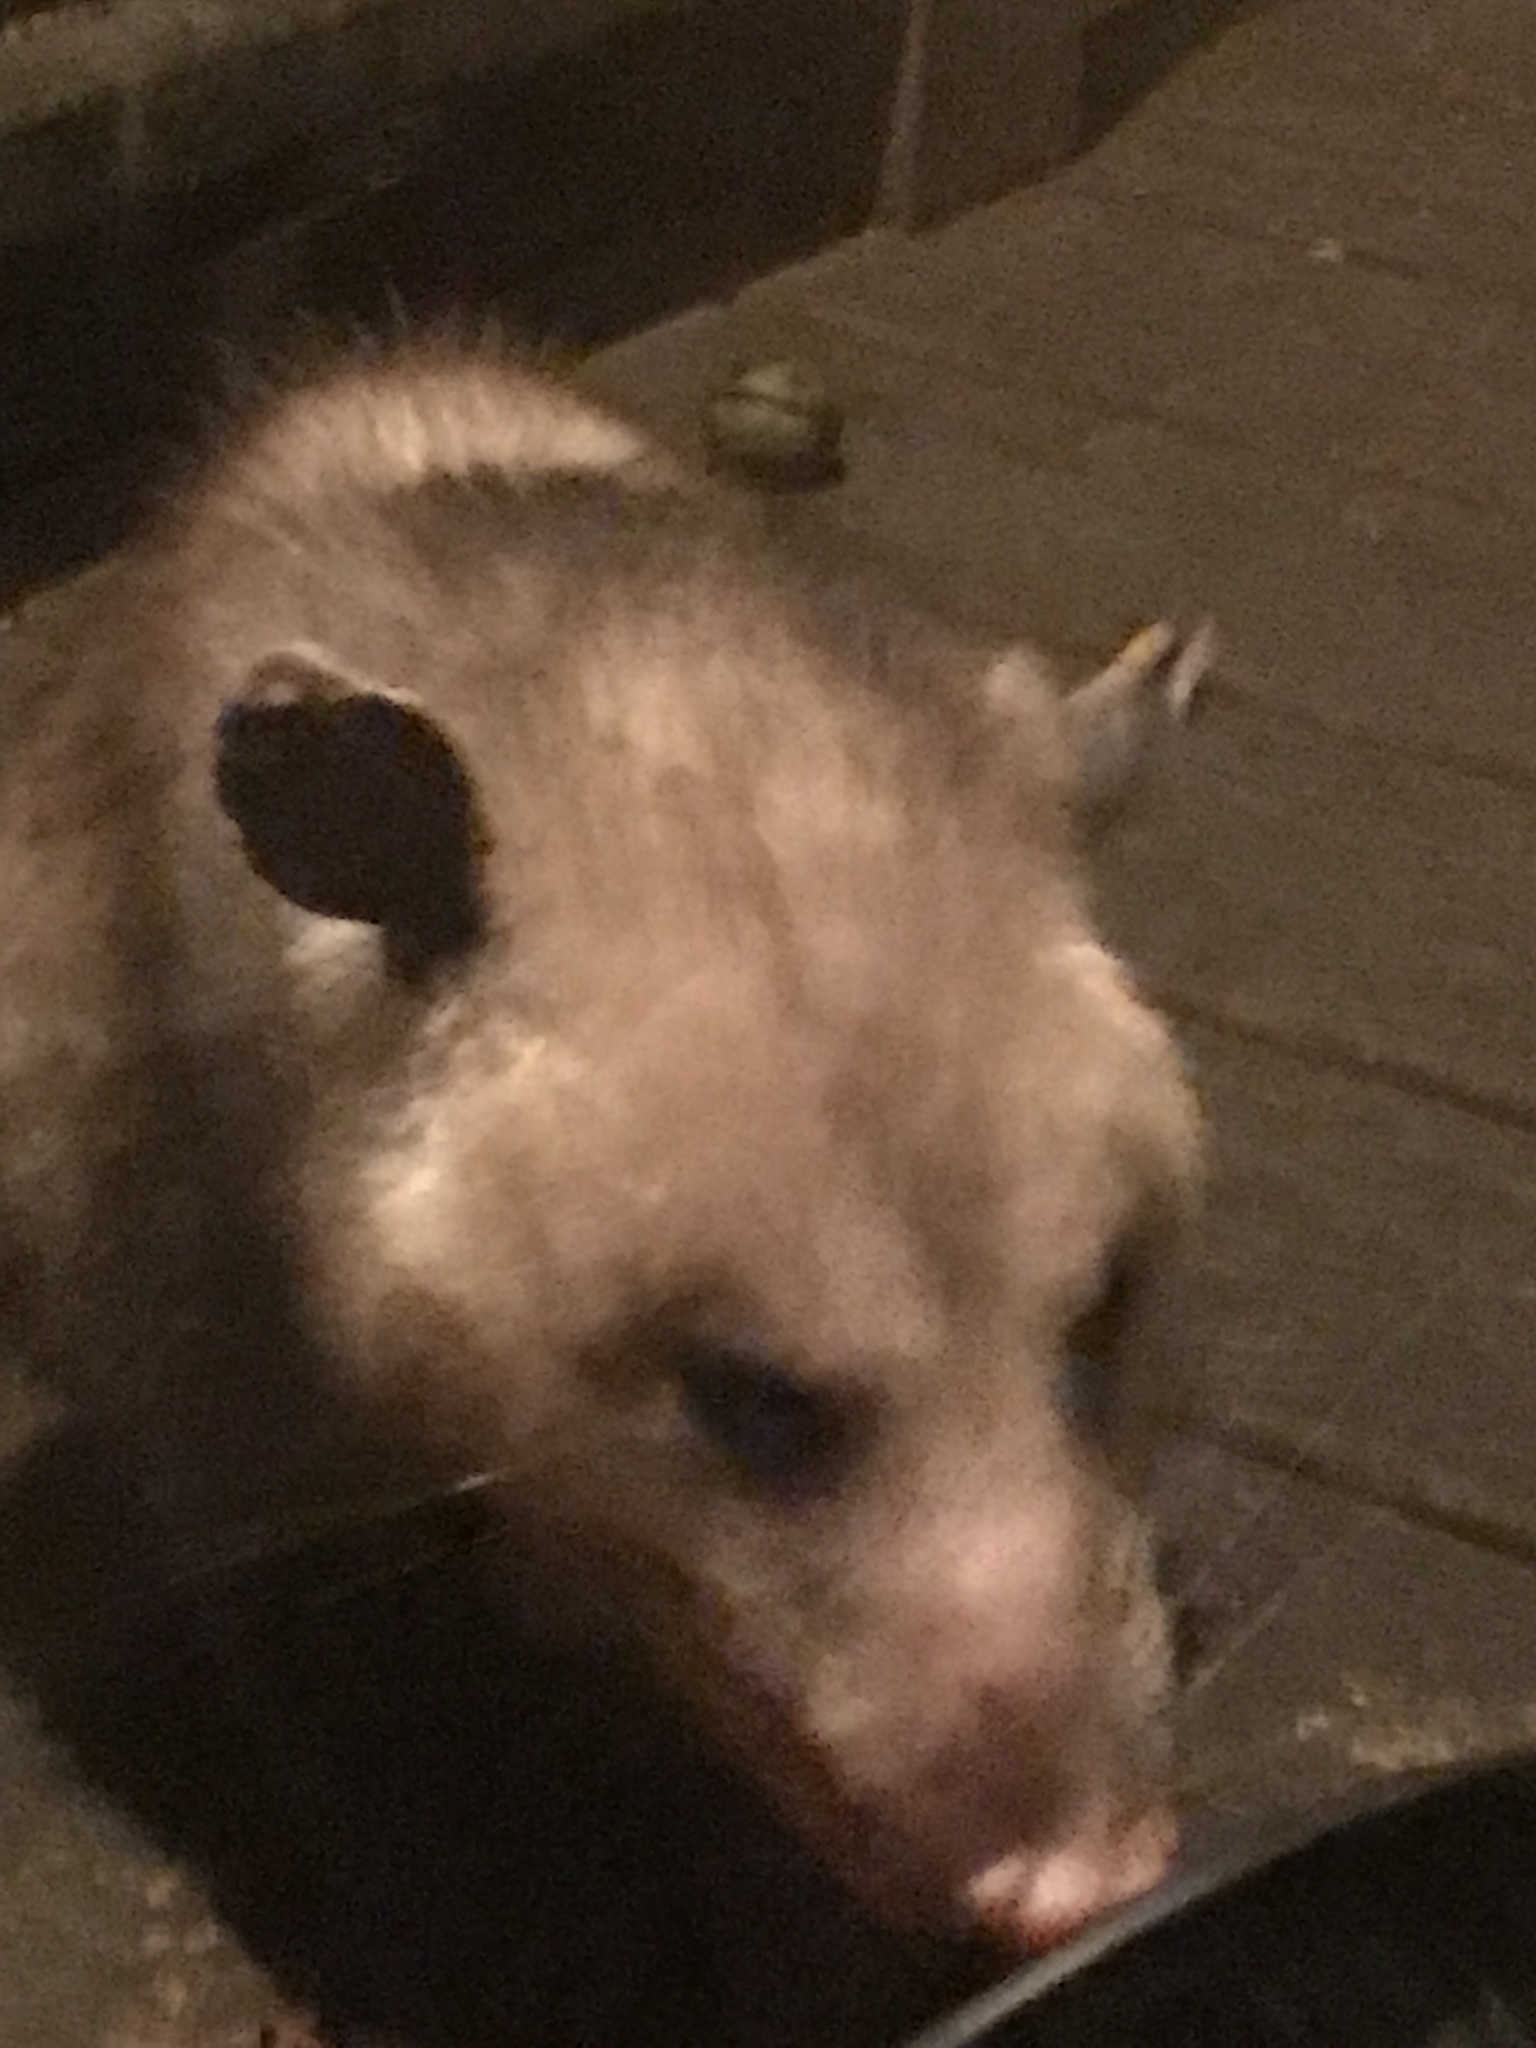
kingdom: Animalia
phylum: Chordata
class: Mammalia
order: Didelphimorphia
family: Didelphidae
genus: Didelphis
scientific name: Didelphis virginiana
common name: Virginia opossum
